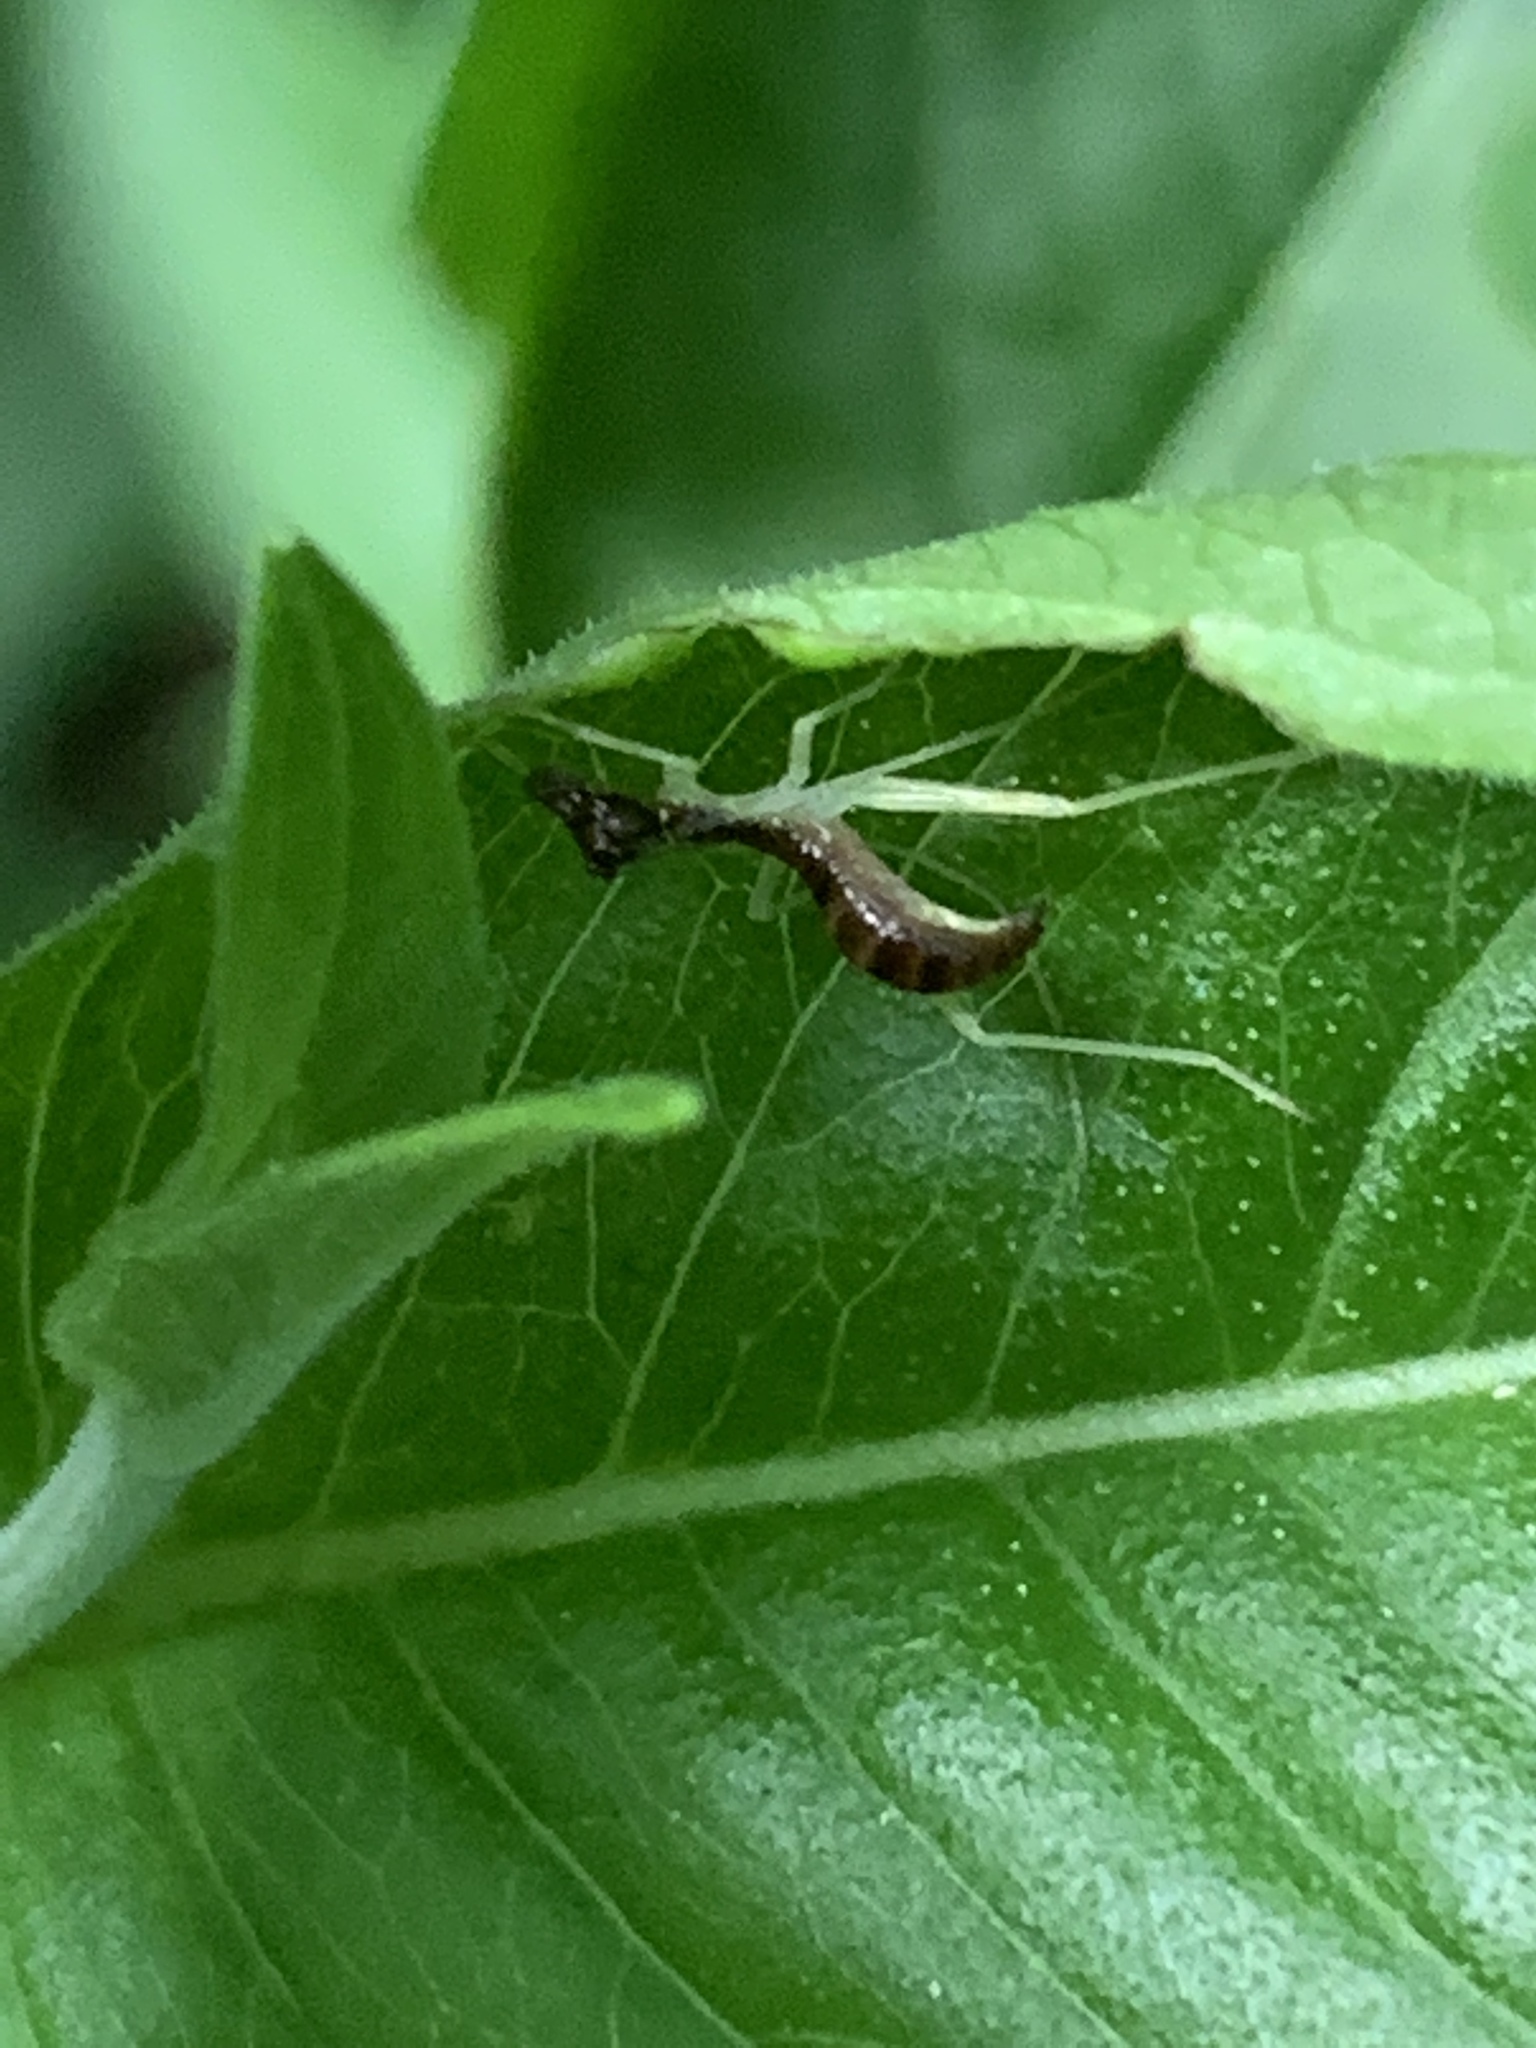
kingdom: Animalia
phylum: Arthropoda
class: Insecta
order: Orthoptera
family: Gryllidae
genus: Neoxabea
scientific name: Neoxabea bipunctata
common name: Two-spotted tree cricket
